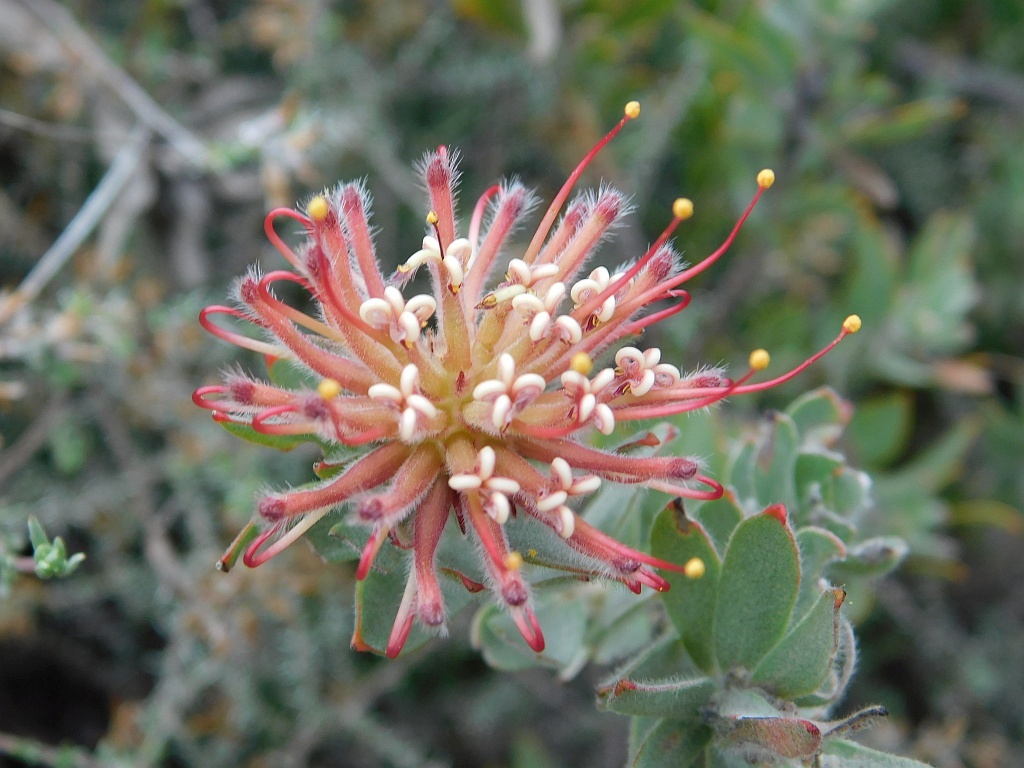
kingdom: Plantae
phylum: Tracheophyta
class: Magnoliopsida
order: Proteales
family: Proteaceae
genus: Leucospermum
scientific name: Leucospermum calligerum
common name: Arid pincushion
